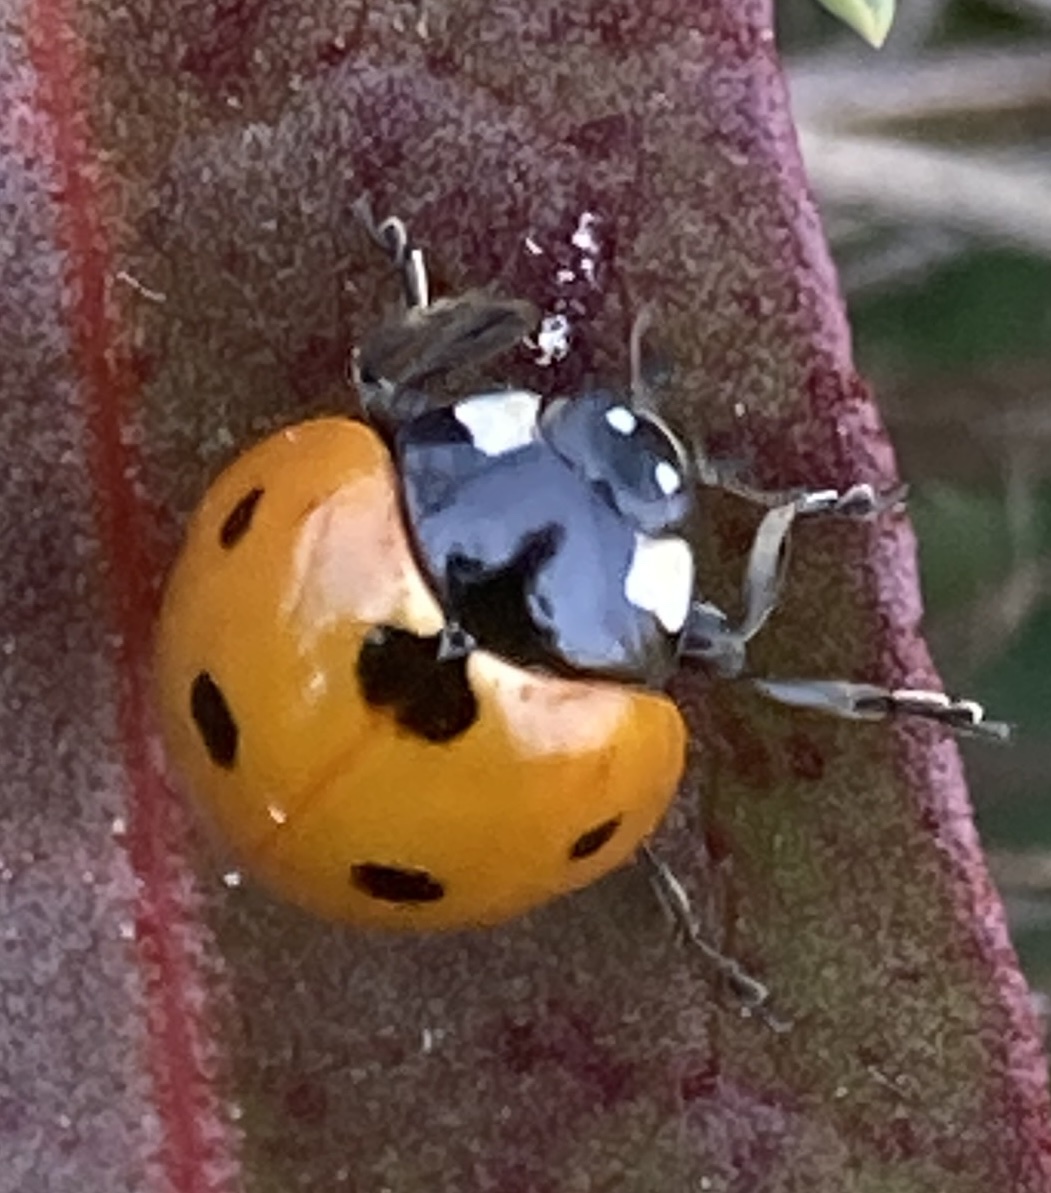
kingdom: Animalia
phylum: Arthropoda
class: Insecta
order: Coleoptera
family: Coccinellidae
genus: Coccinella
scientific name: Coccinella septempunctata
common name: Sevenspotted lady beetle
